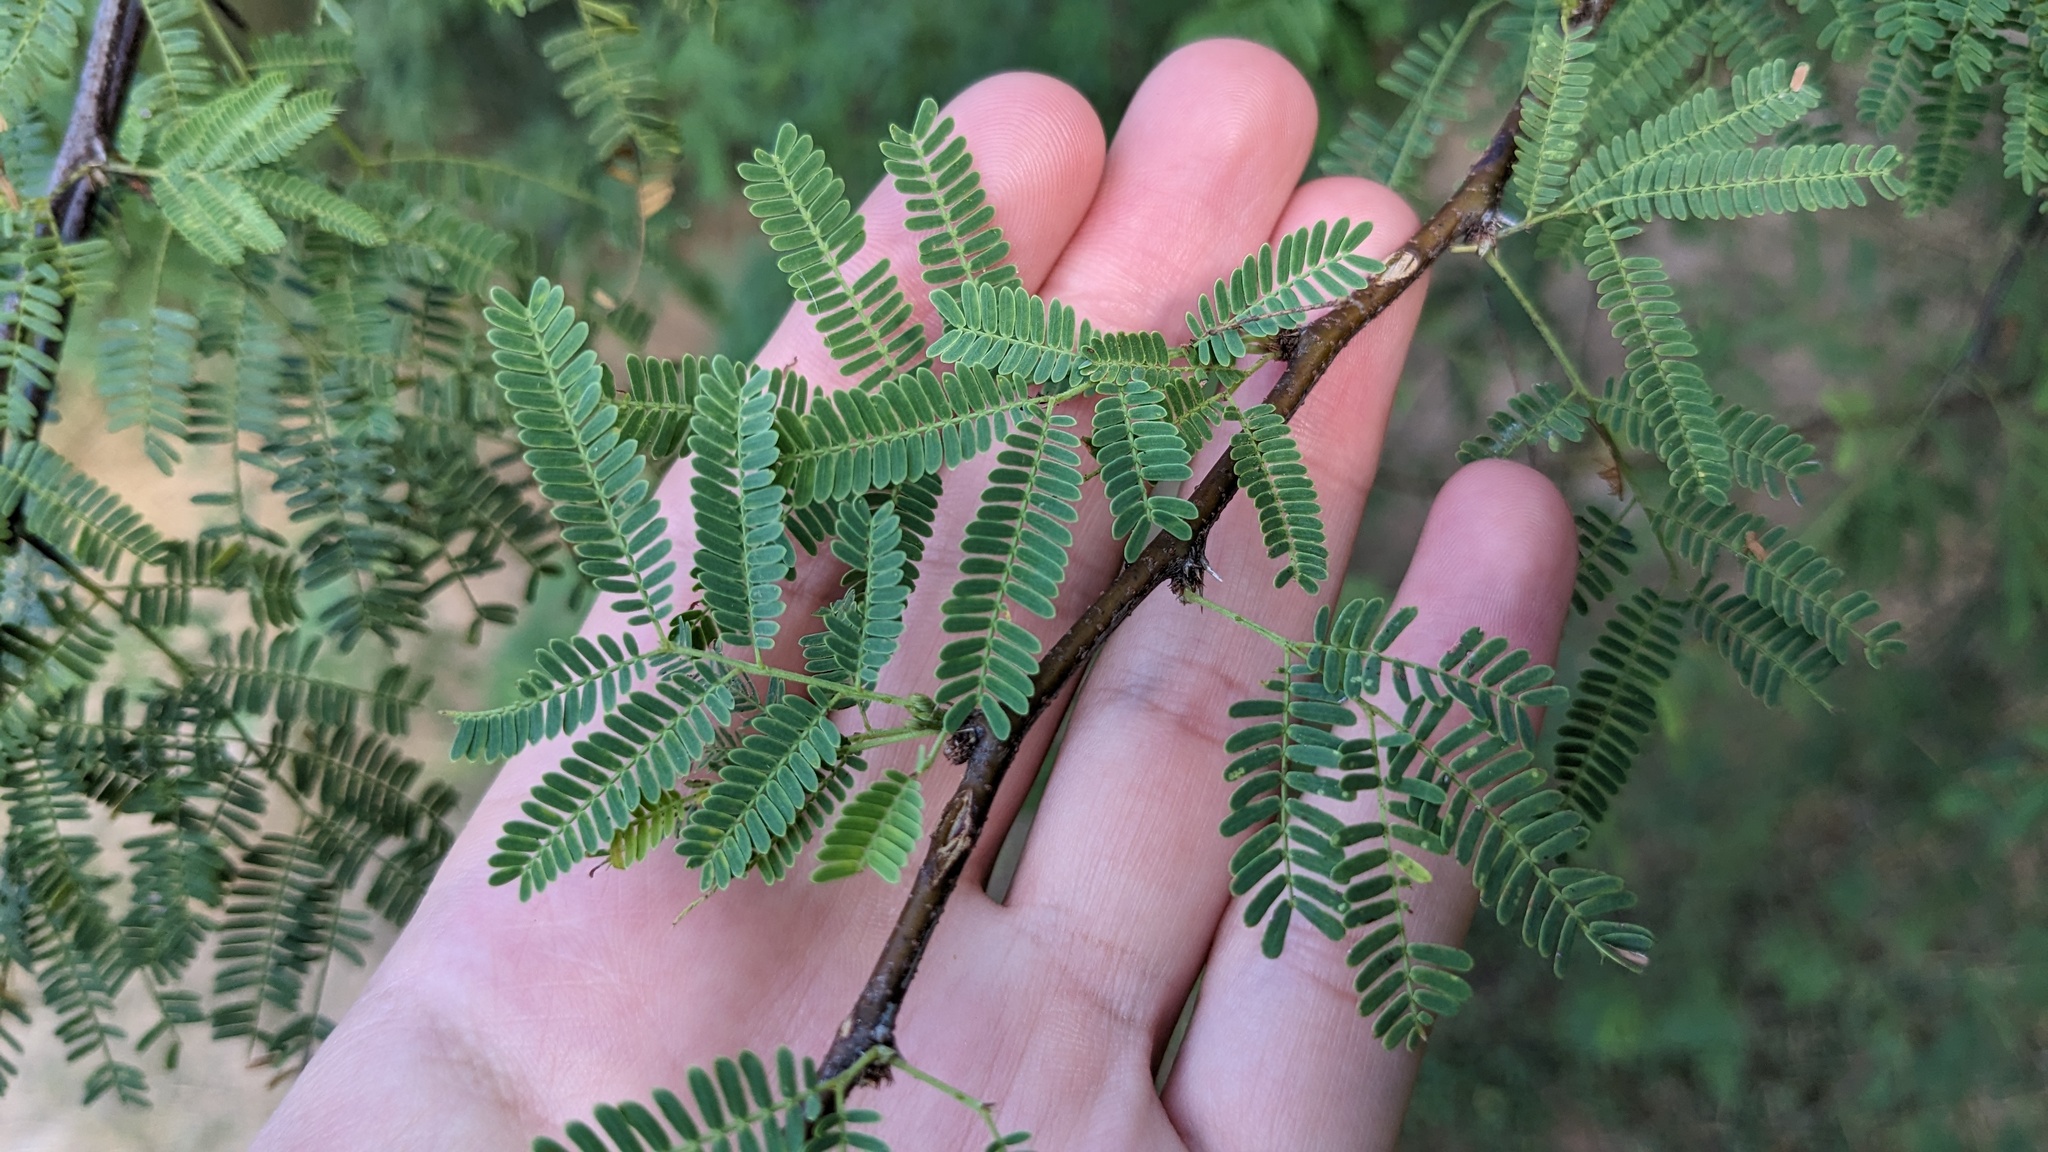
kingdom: Plantae
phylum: Tracheophyta
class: Magnoliopsida
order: Fabales
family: Fabaceae
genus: Vachellia
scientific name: Vachellia farnesiana
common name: Sweet acacia
